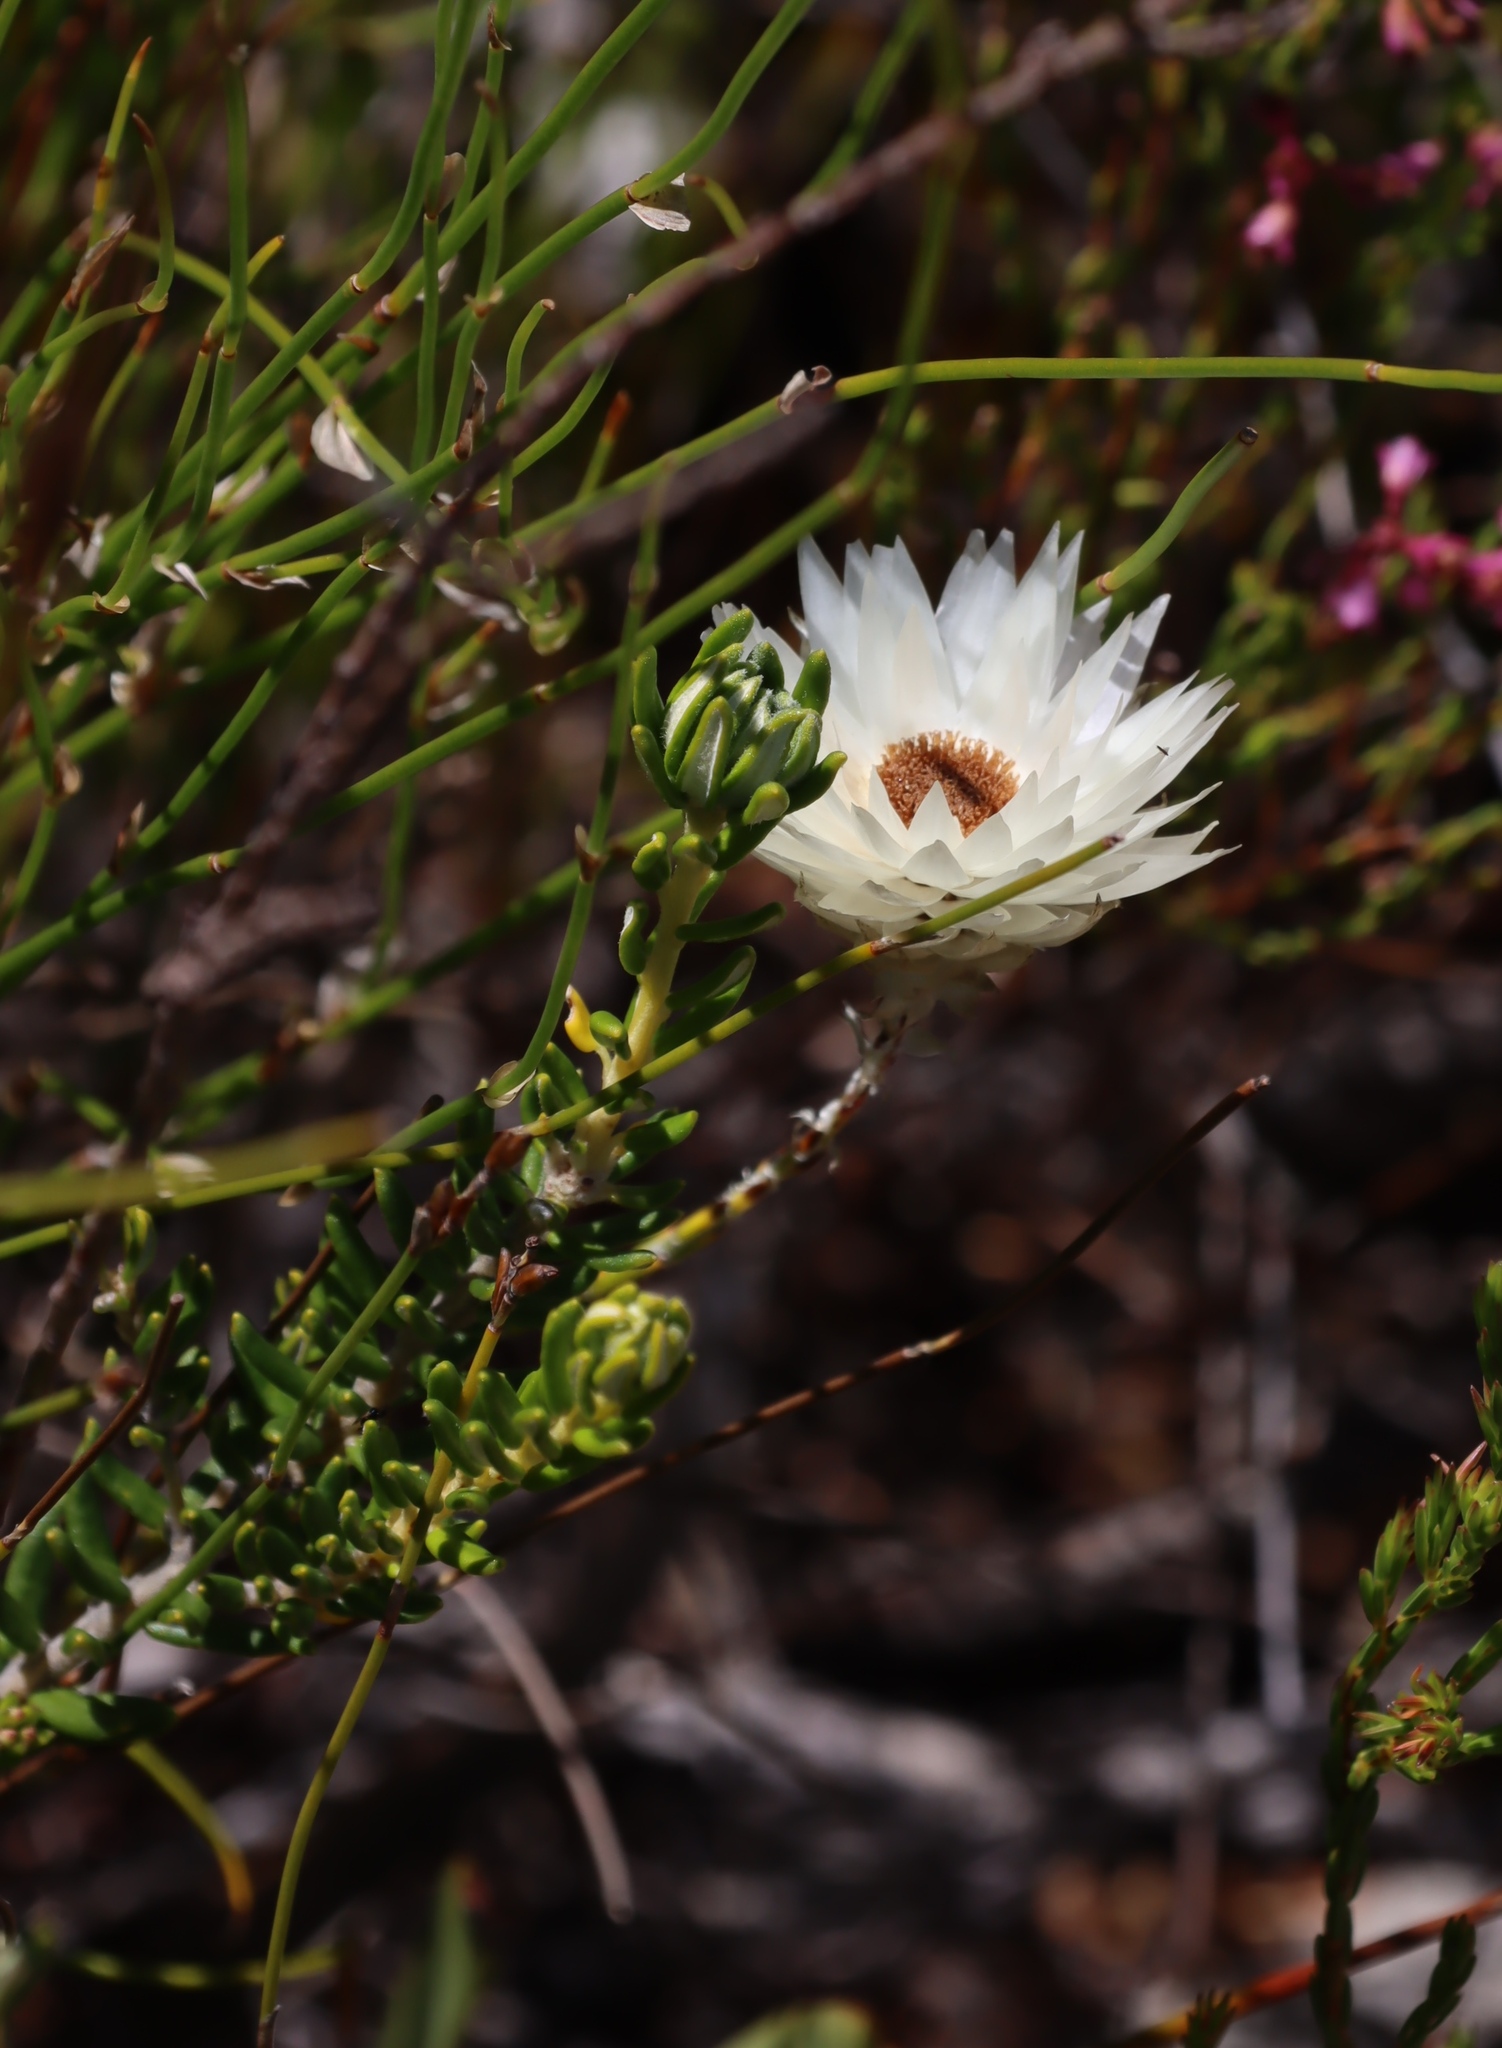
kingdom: Plantae
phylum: Tracheophyta
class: Magnoliopsida
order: Asterales
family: Asteraceae
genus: Edmondia
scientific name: Edmondia sesamoides
